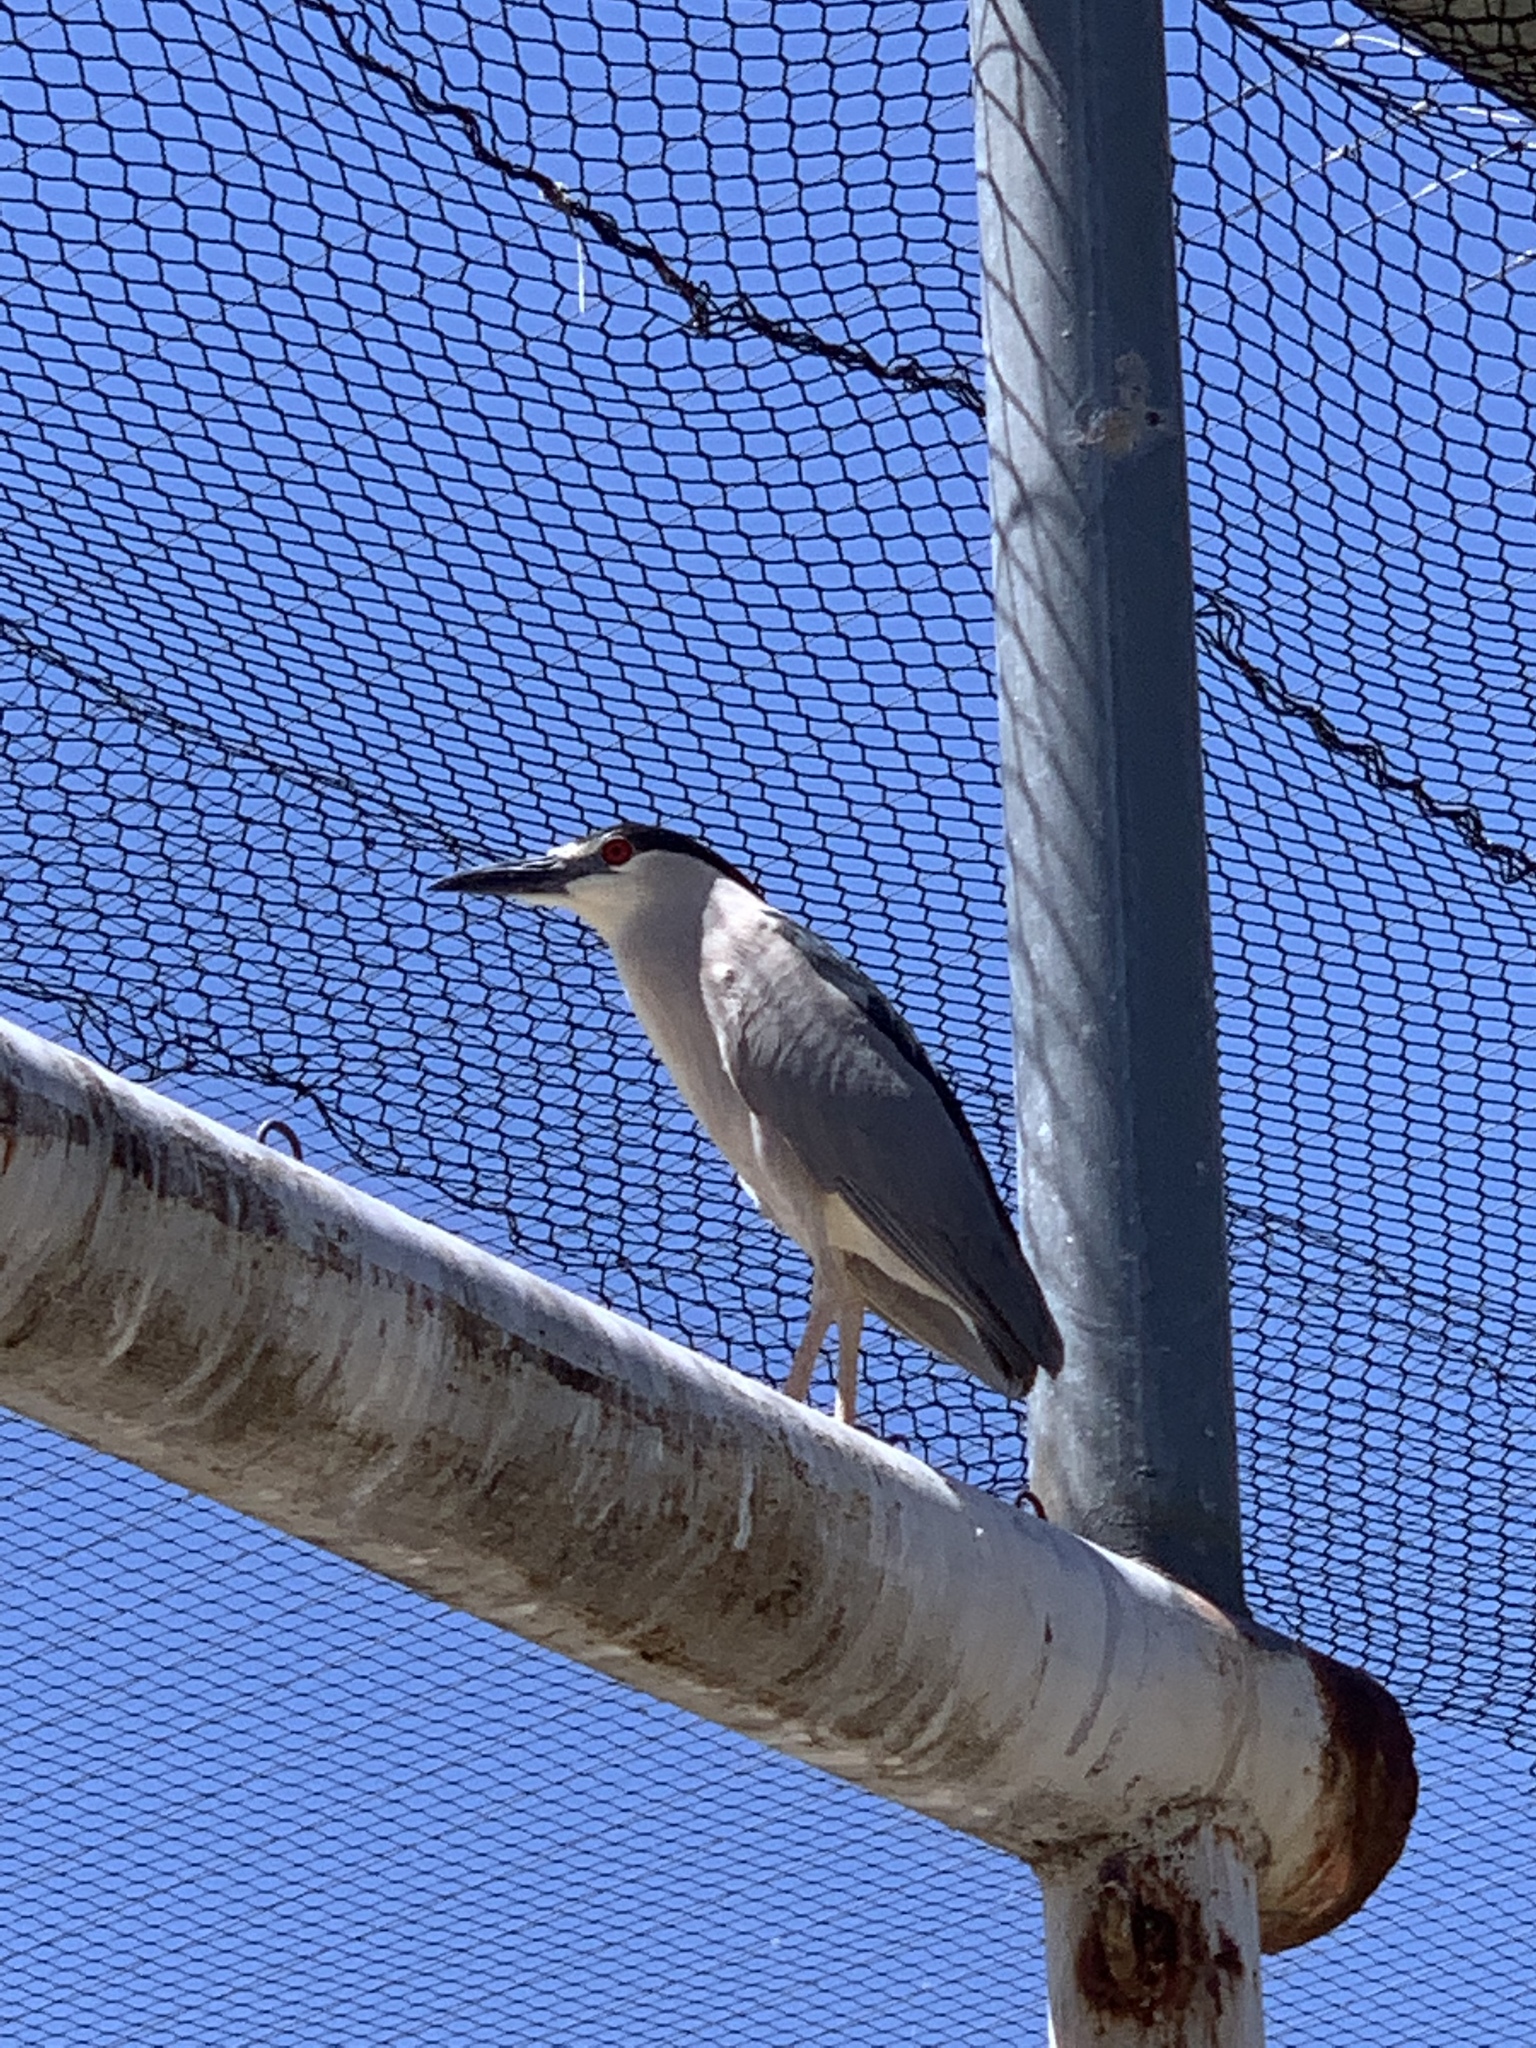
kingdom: Animalia
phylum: Chordata
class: Aves
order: Pelecaniformes
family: Ardeidae
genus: Nycticorax
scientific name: Nycticorax nycticorax
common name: Black-crowned night heron
